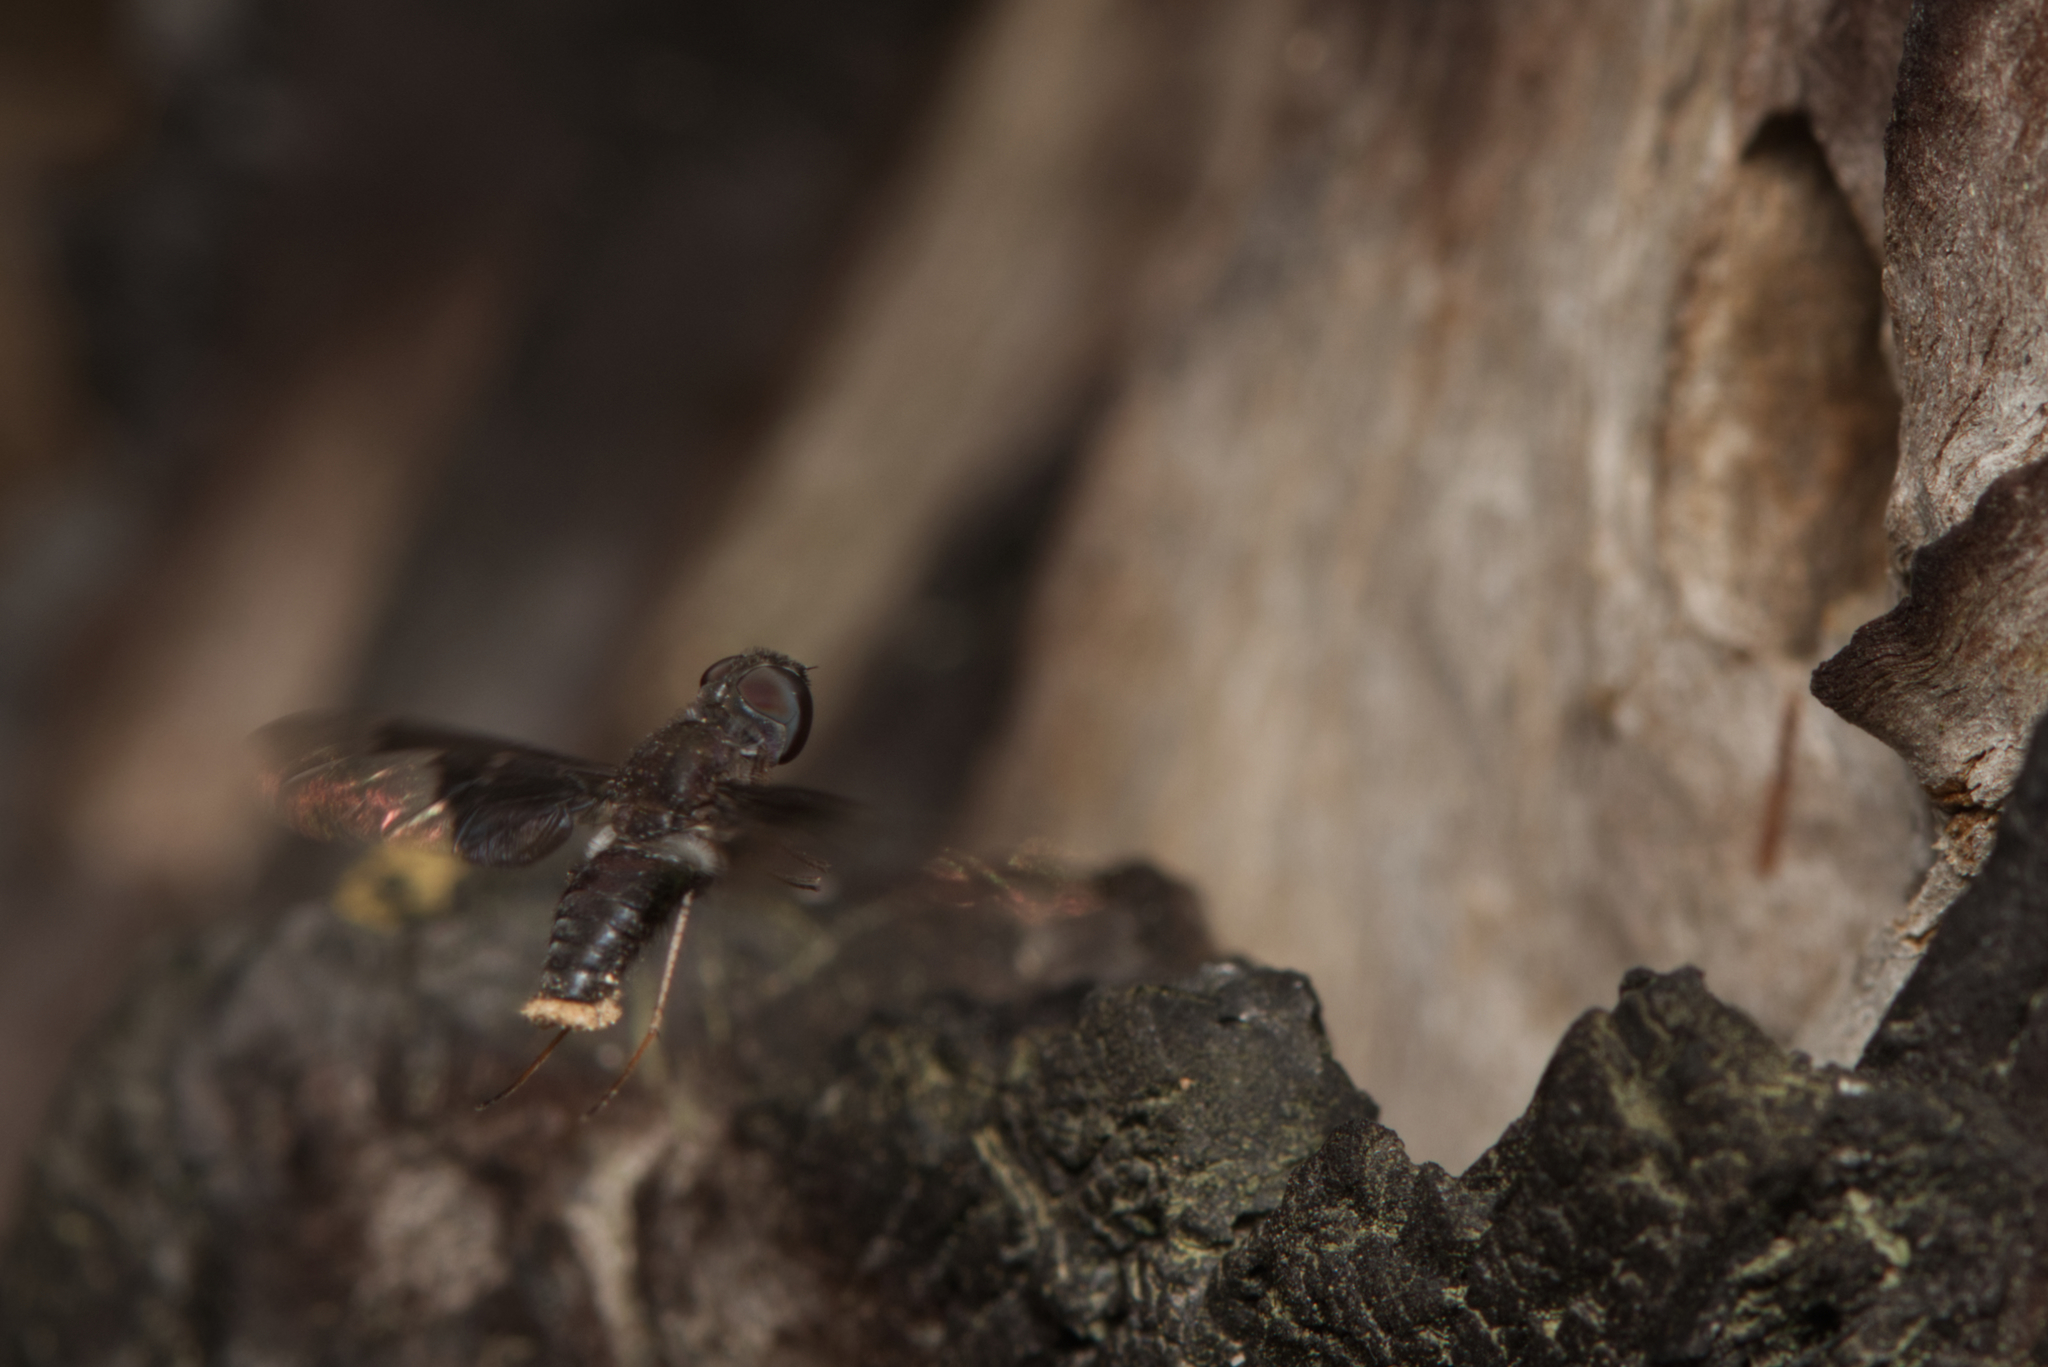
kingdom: Animalia
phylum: Arthropoda
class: Insecta
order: Diptera
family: Bombyliidae
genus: Anthrax
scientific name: Anthrax dolobratus
